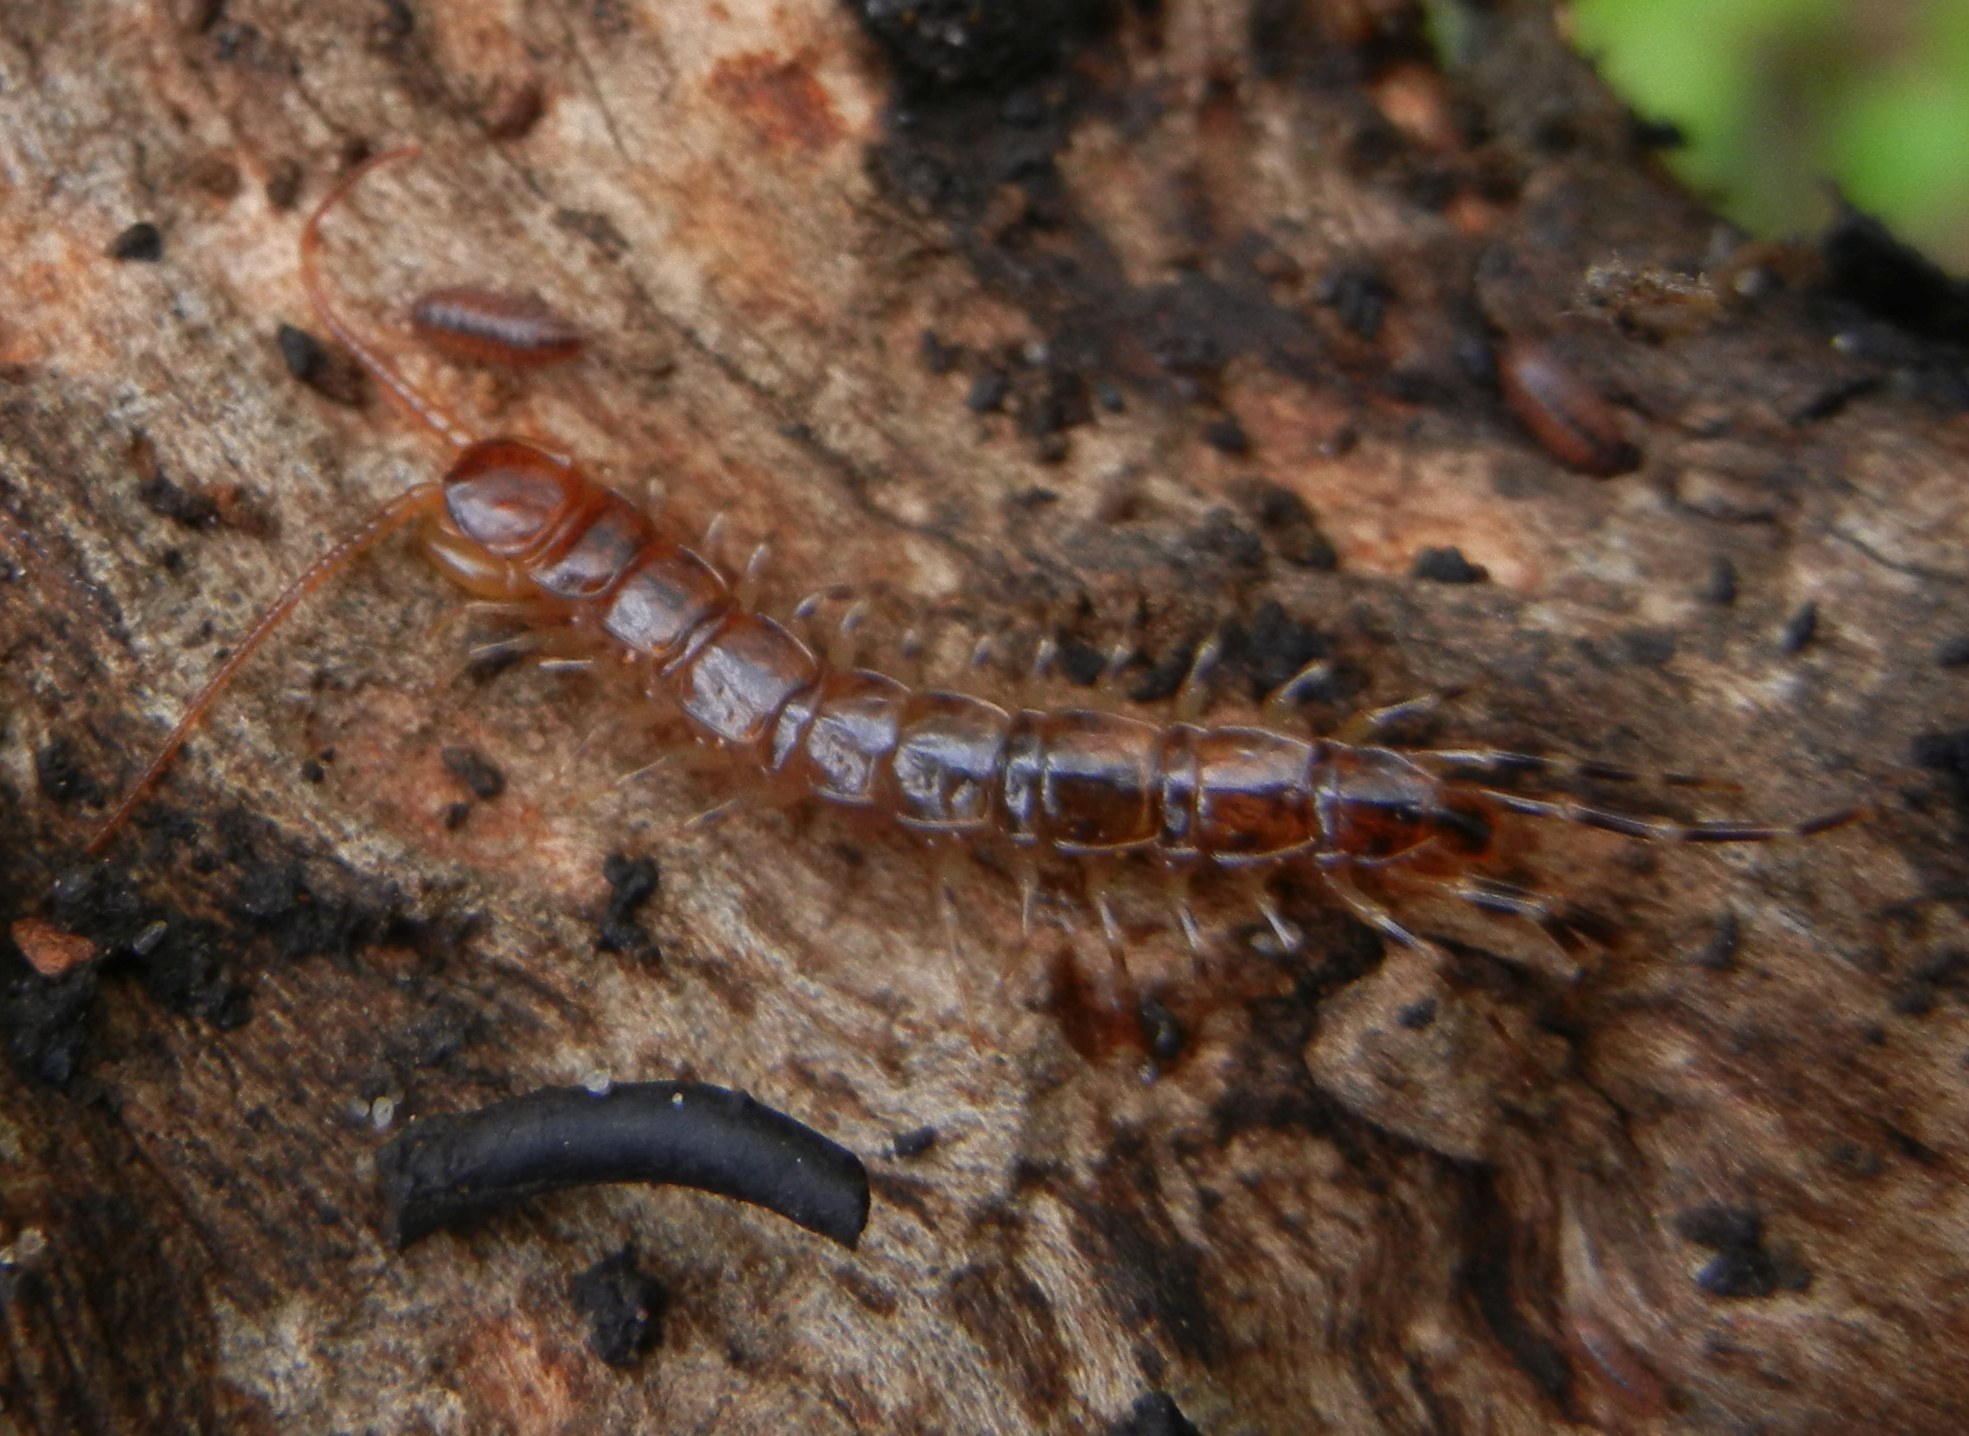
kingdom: Animalia
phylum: Arthropoda
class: Chilopoda
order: Lithobiomorpha
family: Lithobiidae
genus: Lithobius
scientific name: Lithobius variegatus
